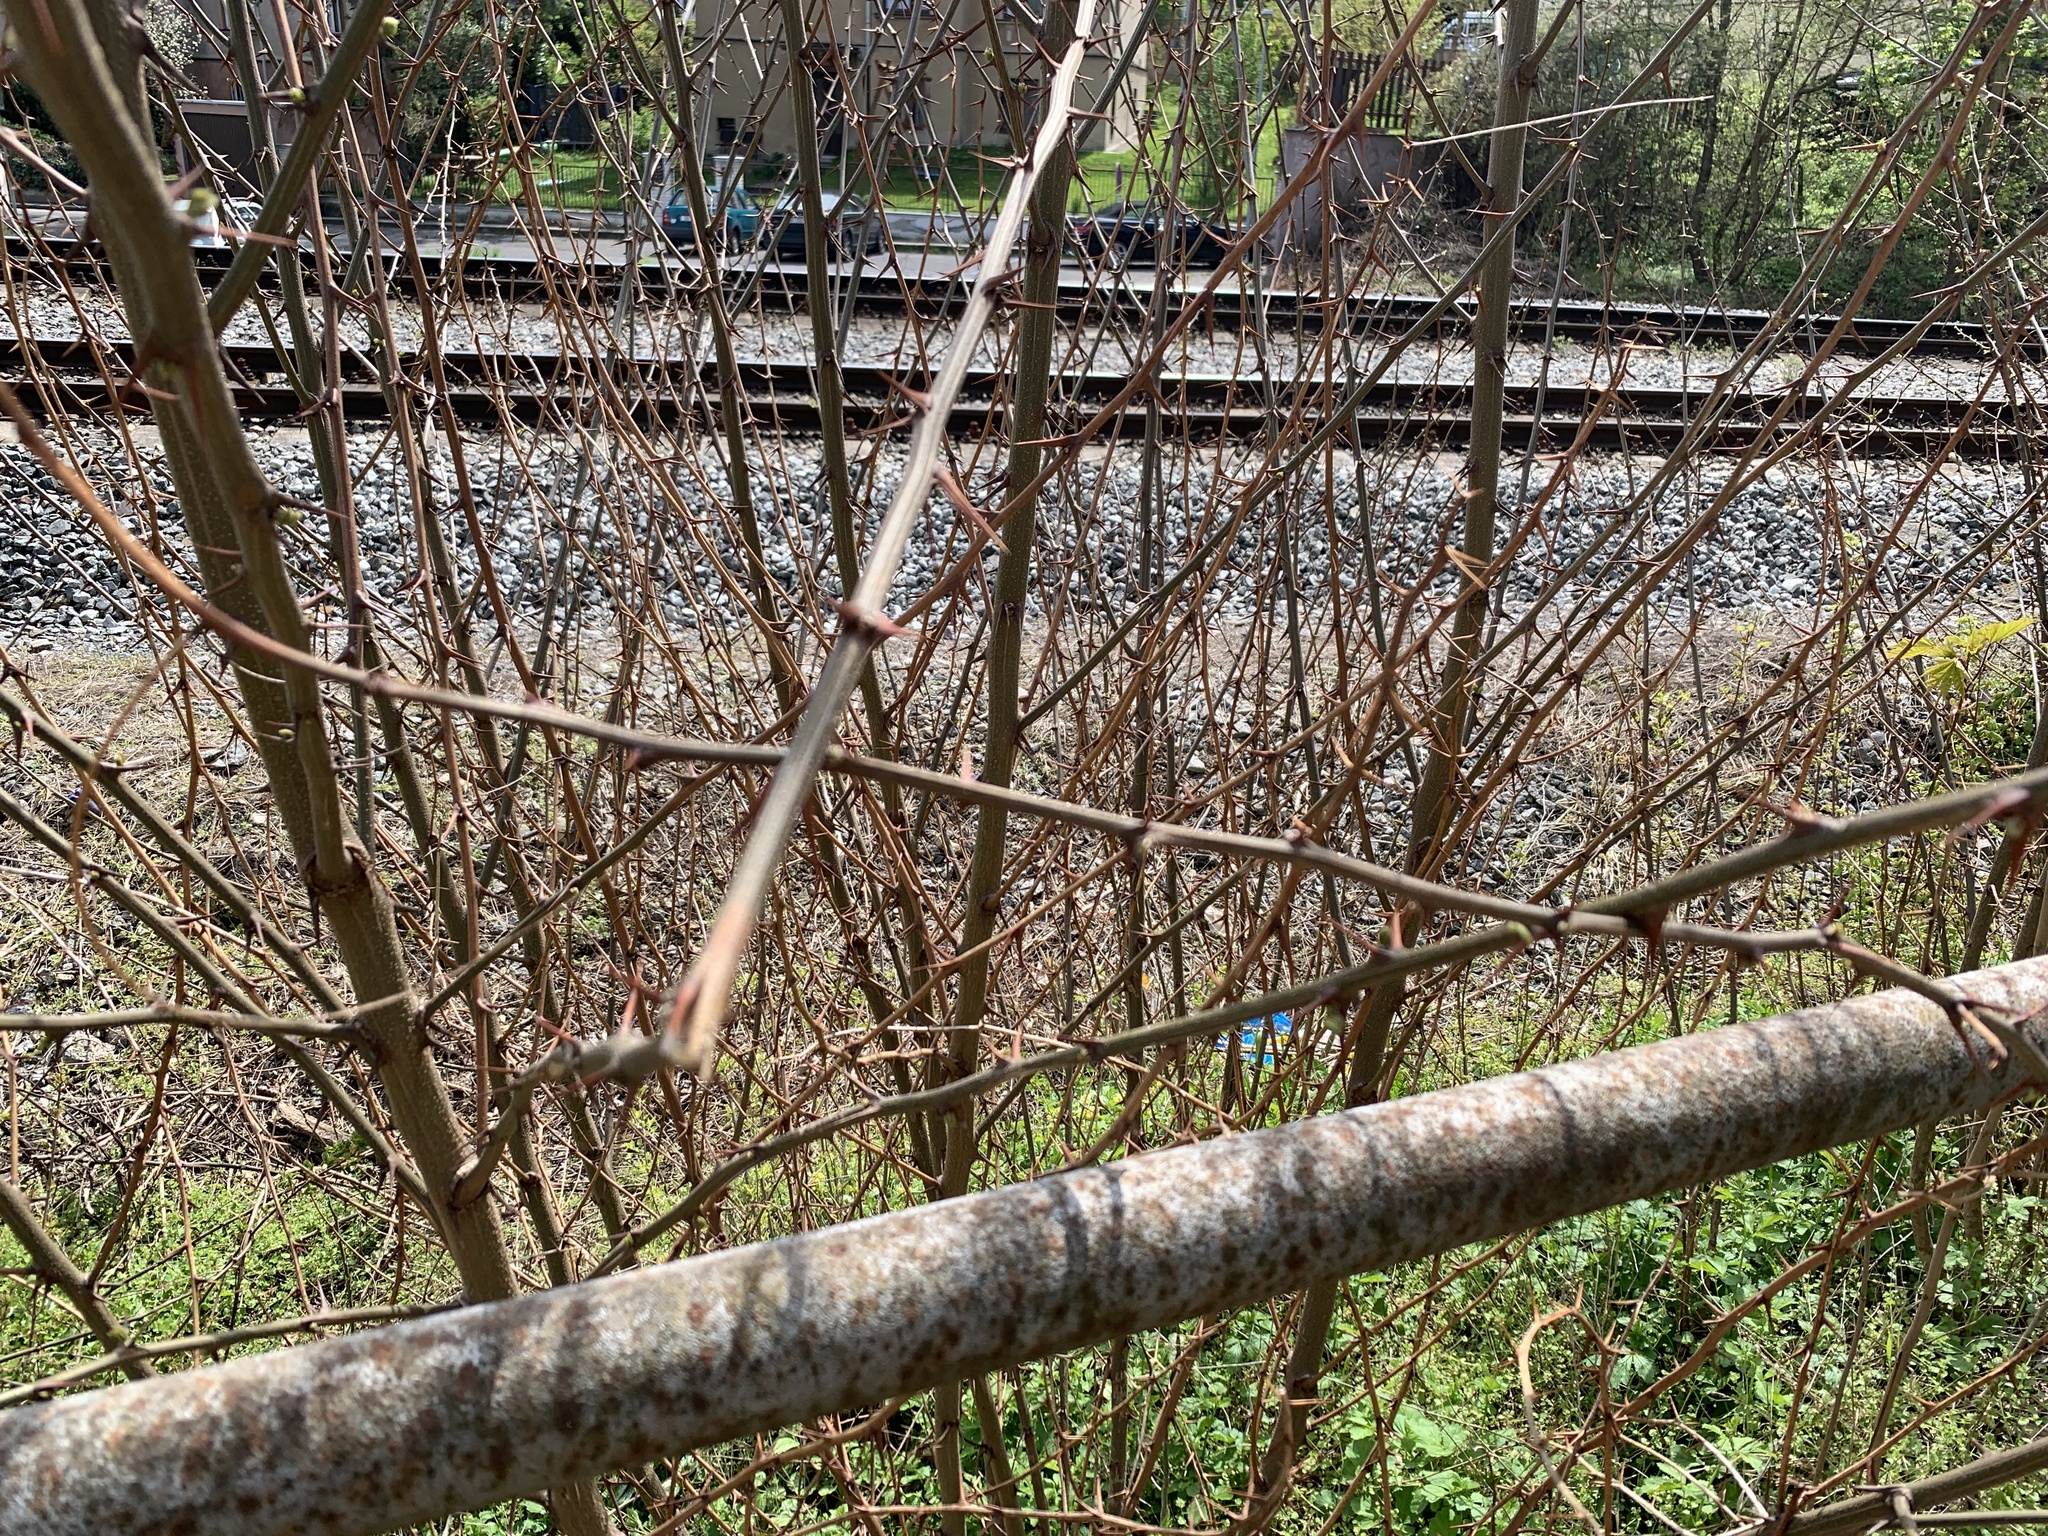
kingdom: Plantae
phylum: Tracheophyta
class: Magnoliopsida
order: Fabales
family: Fabaceae
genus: Robinia
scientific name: Robinia pseudoacacia
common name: Black locust
